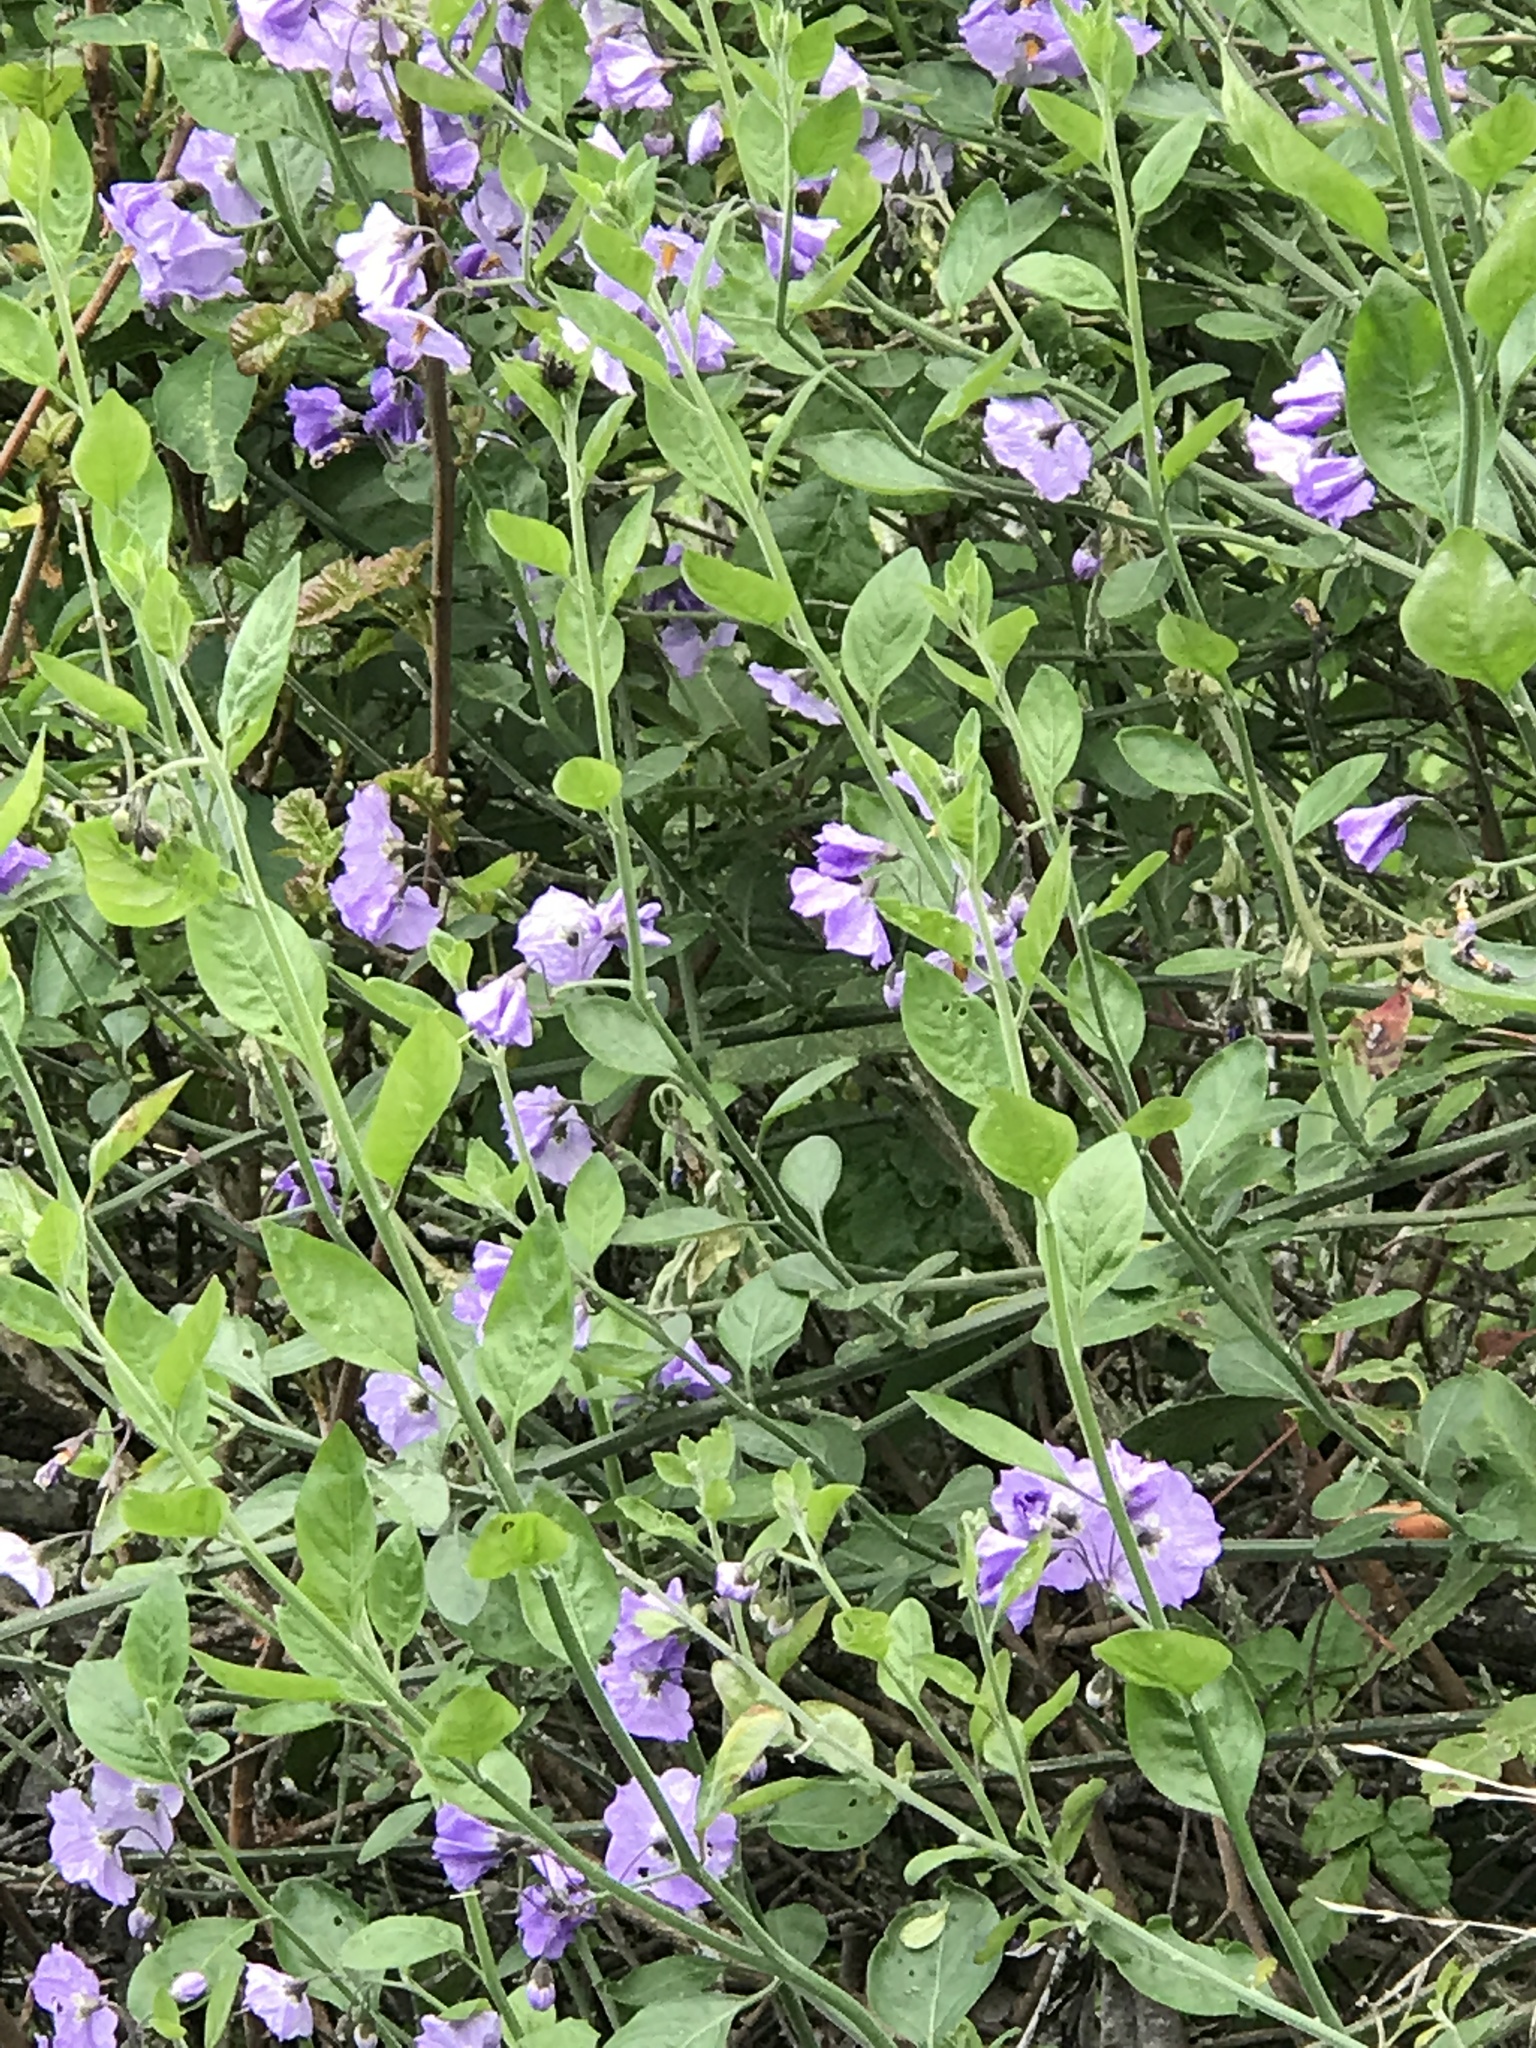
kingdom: Plantae
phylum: Tracheophyta
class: Magnoliopsida
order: Solanales
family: Solanaceae
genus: Solanum
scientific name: Solanum umbelliferum
